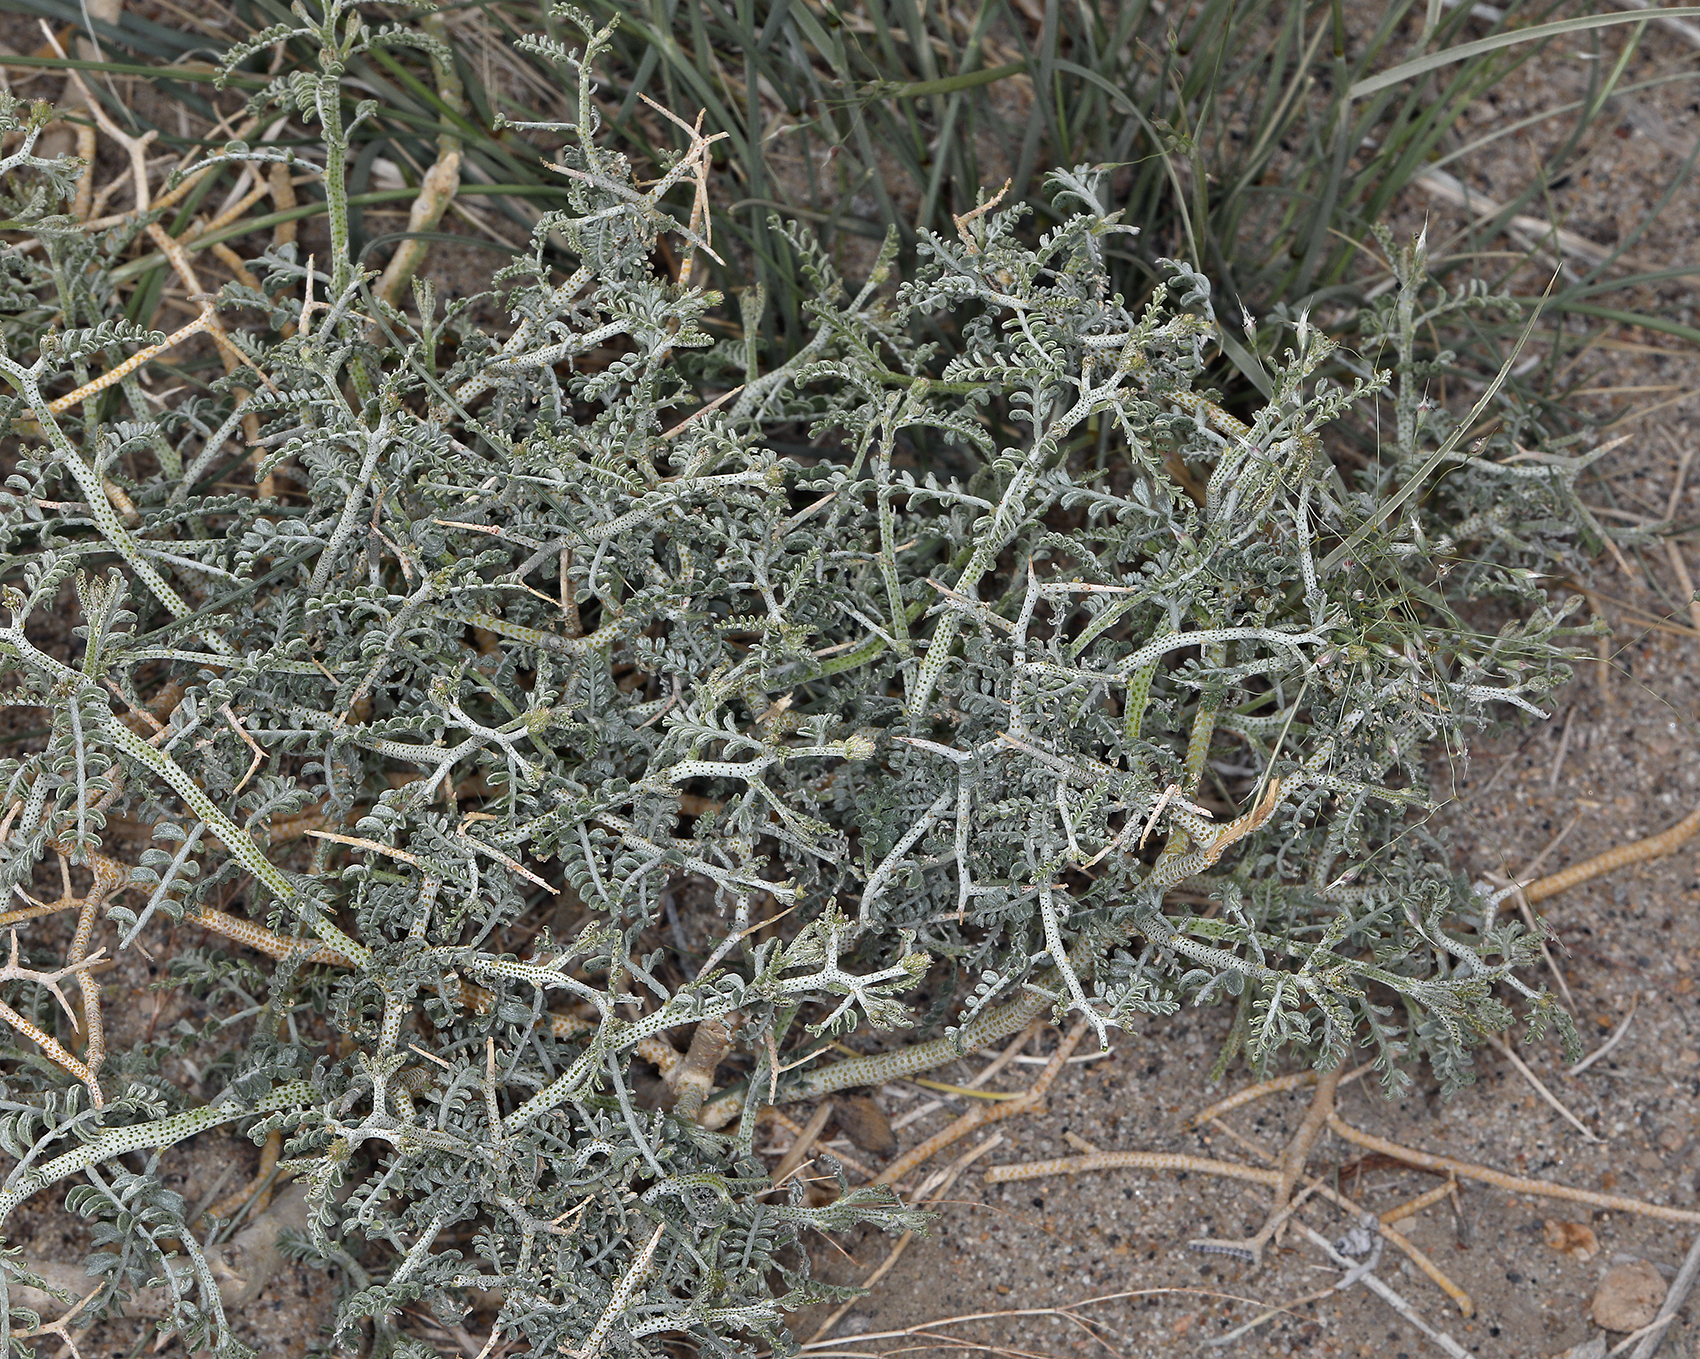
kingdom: Plantae
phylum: Tracheophyta
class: Magnoliopsida
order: Fabales
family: Fabaceae
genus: Psorothamnus
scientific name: Psorothamnus polydenius
